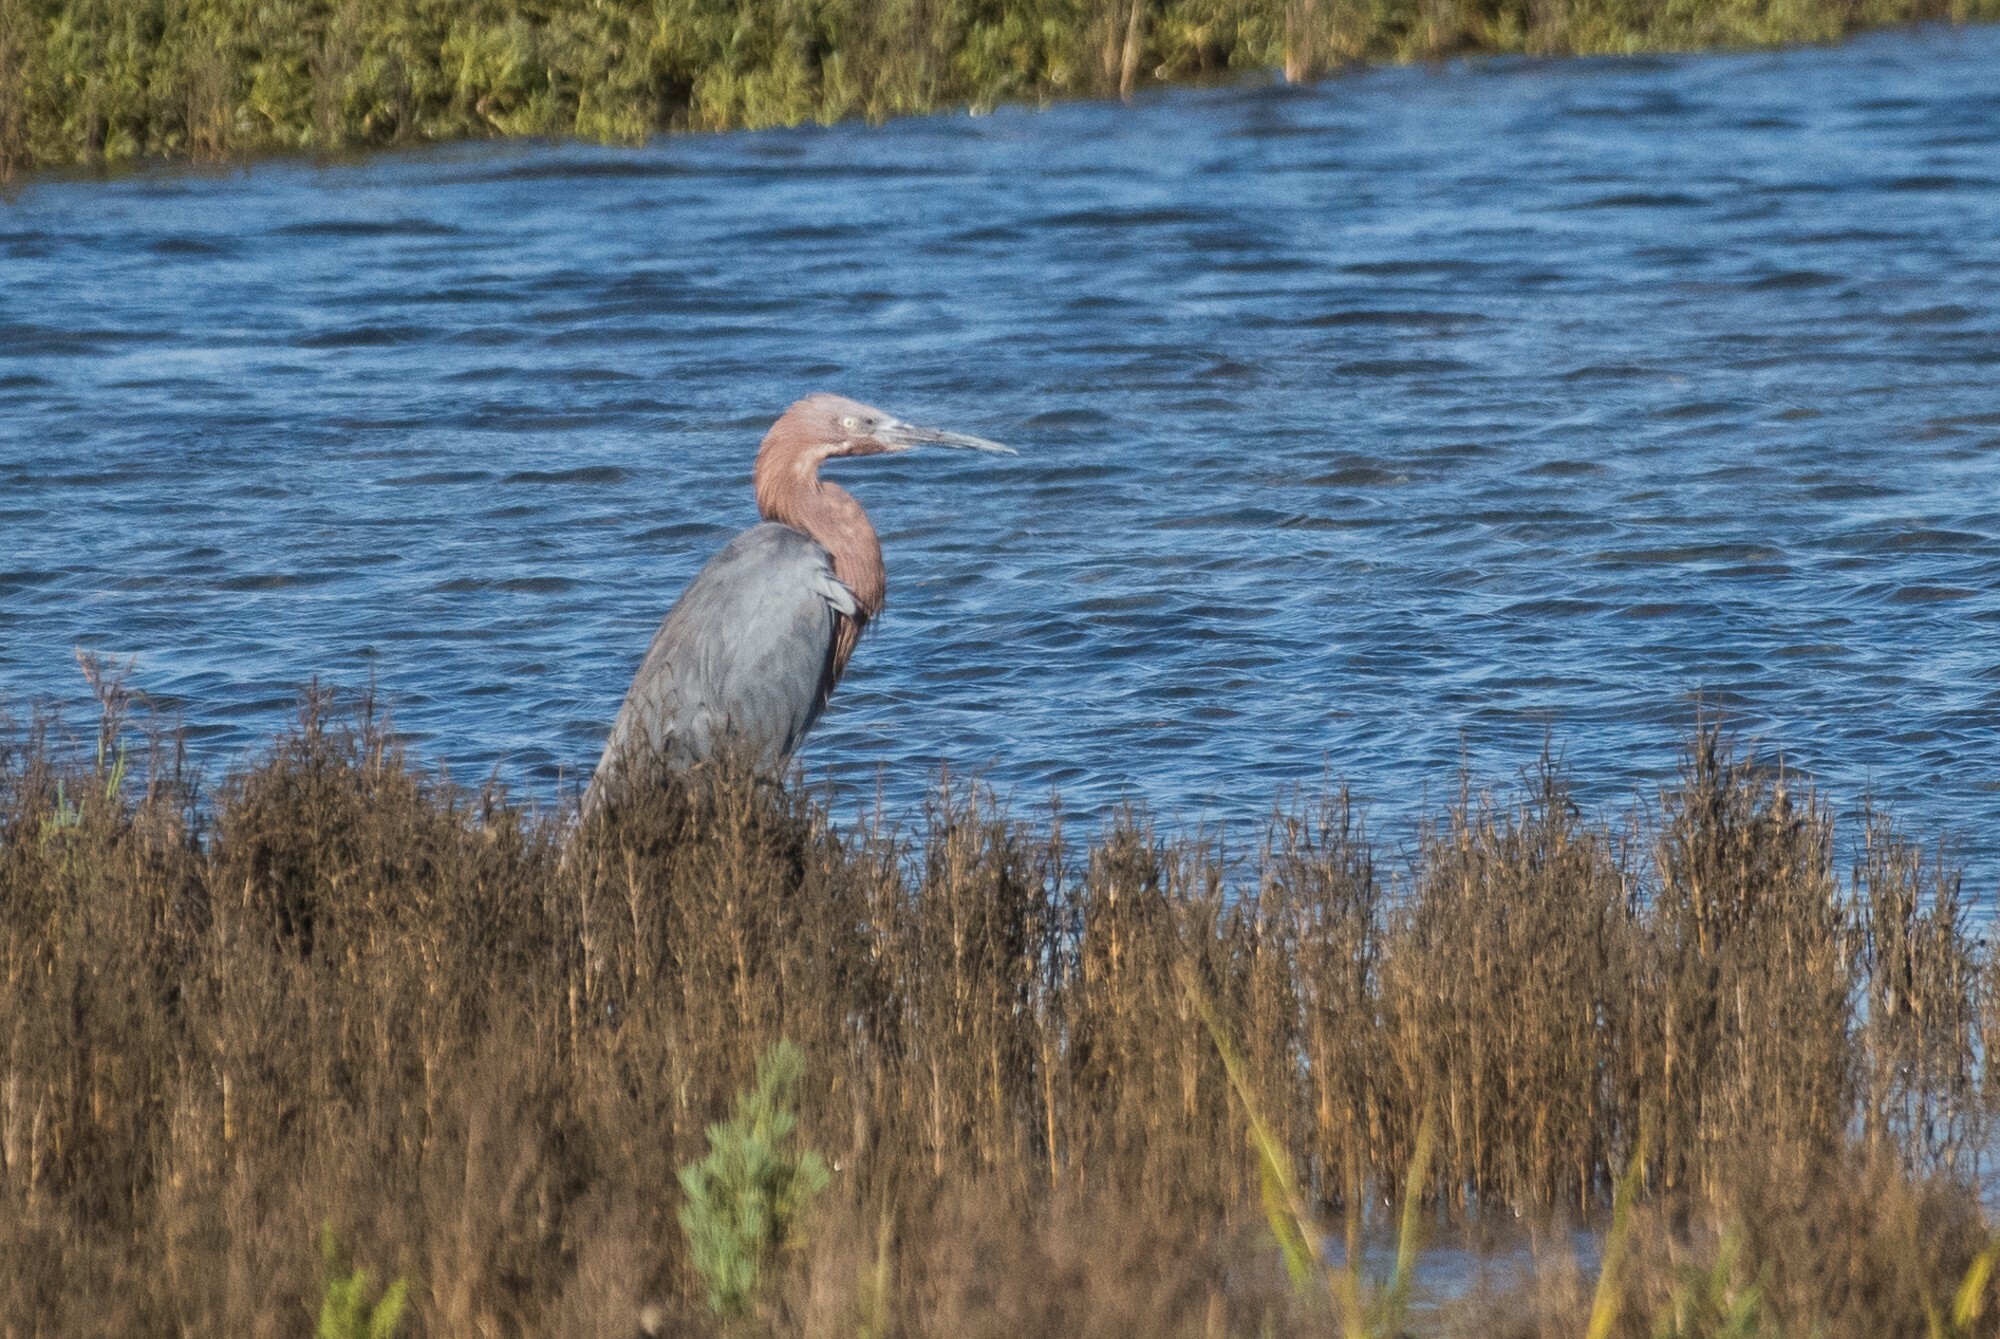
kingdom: Animalia
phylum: Chordata
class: Aves
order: Pelecaniformes
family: Ardeidae
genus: Egretta
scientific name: Egretta rufescens
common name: Reddish egret
